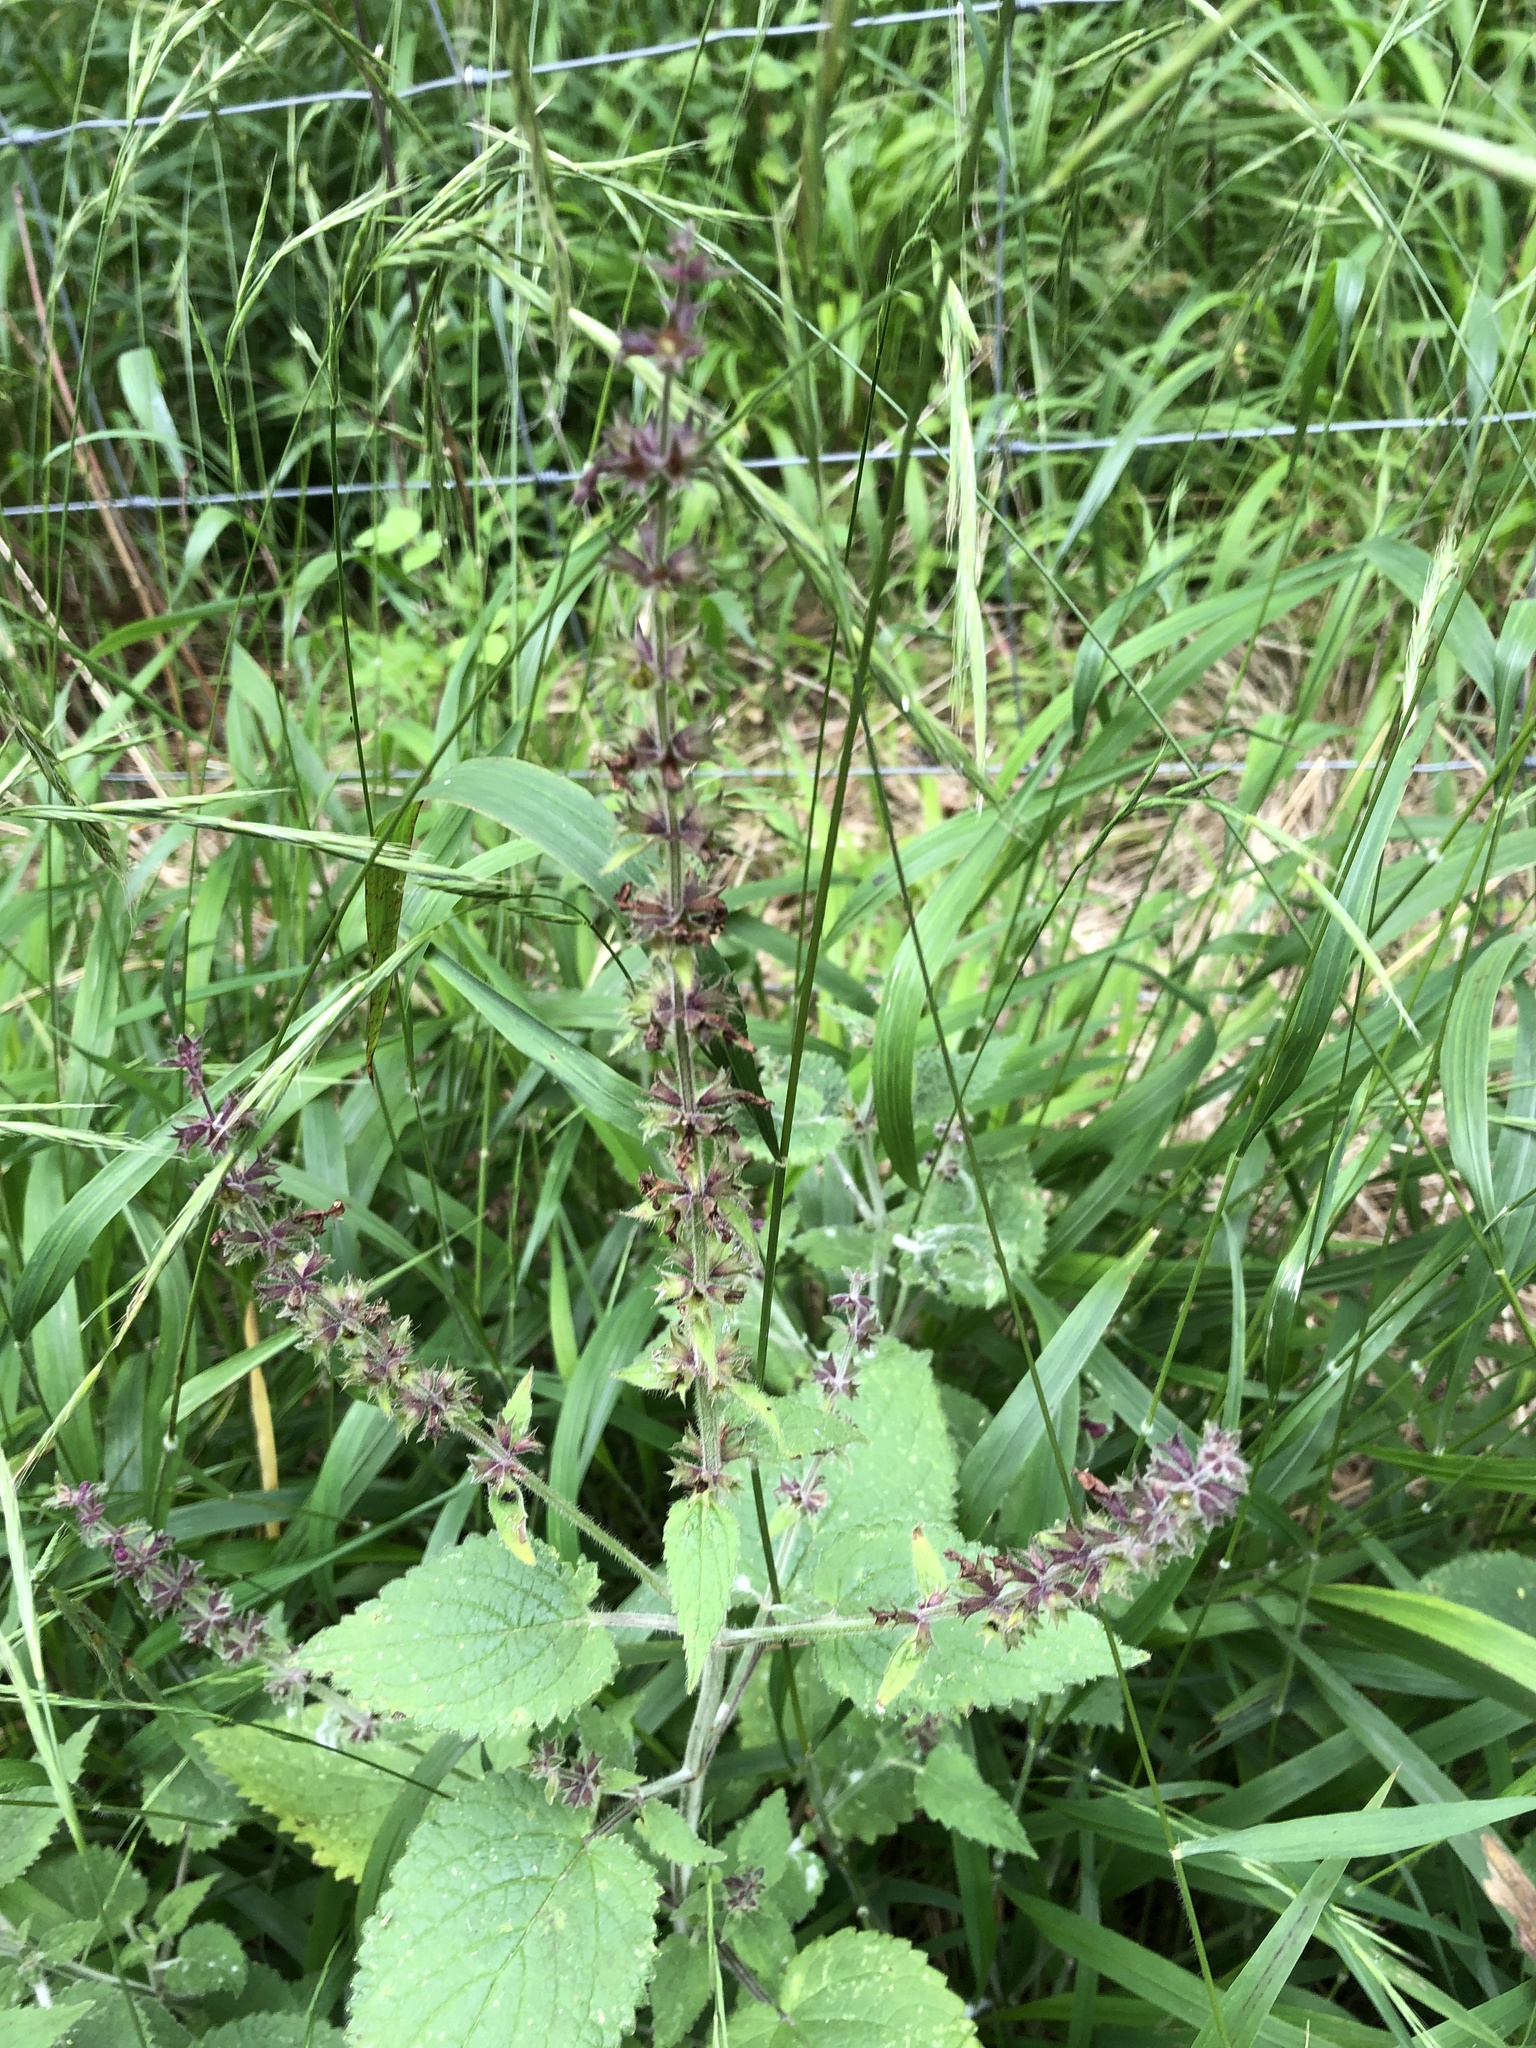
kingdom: Plantae
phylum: Tracheophyta
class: Magnoliopsida
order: Lamiales
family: Lamiaceae
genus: Stachys
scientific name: Stachys sylvatica
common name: Hedge woundwort
